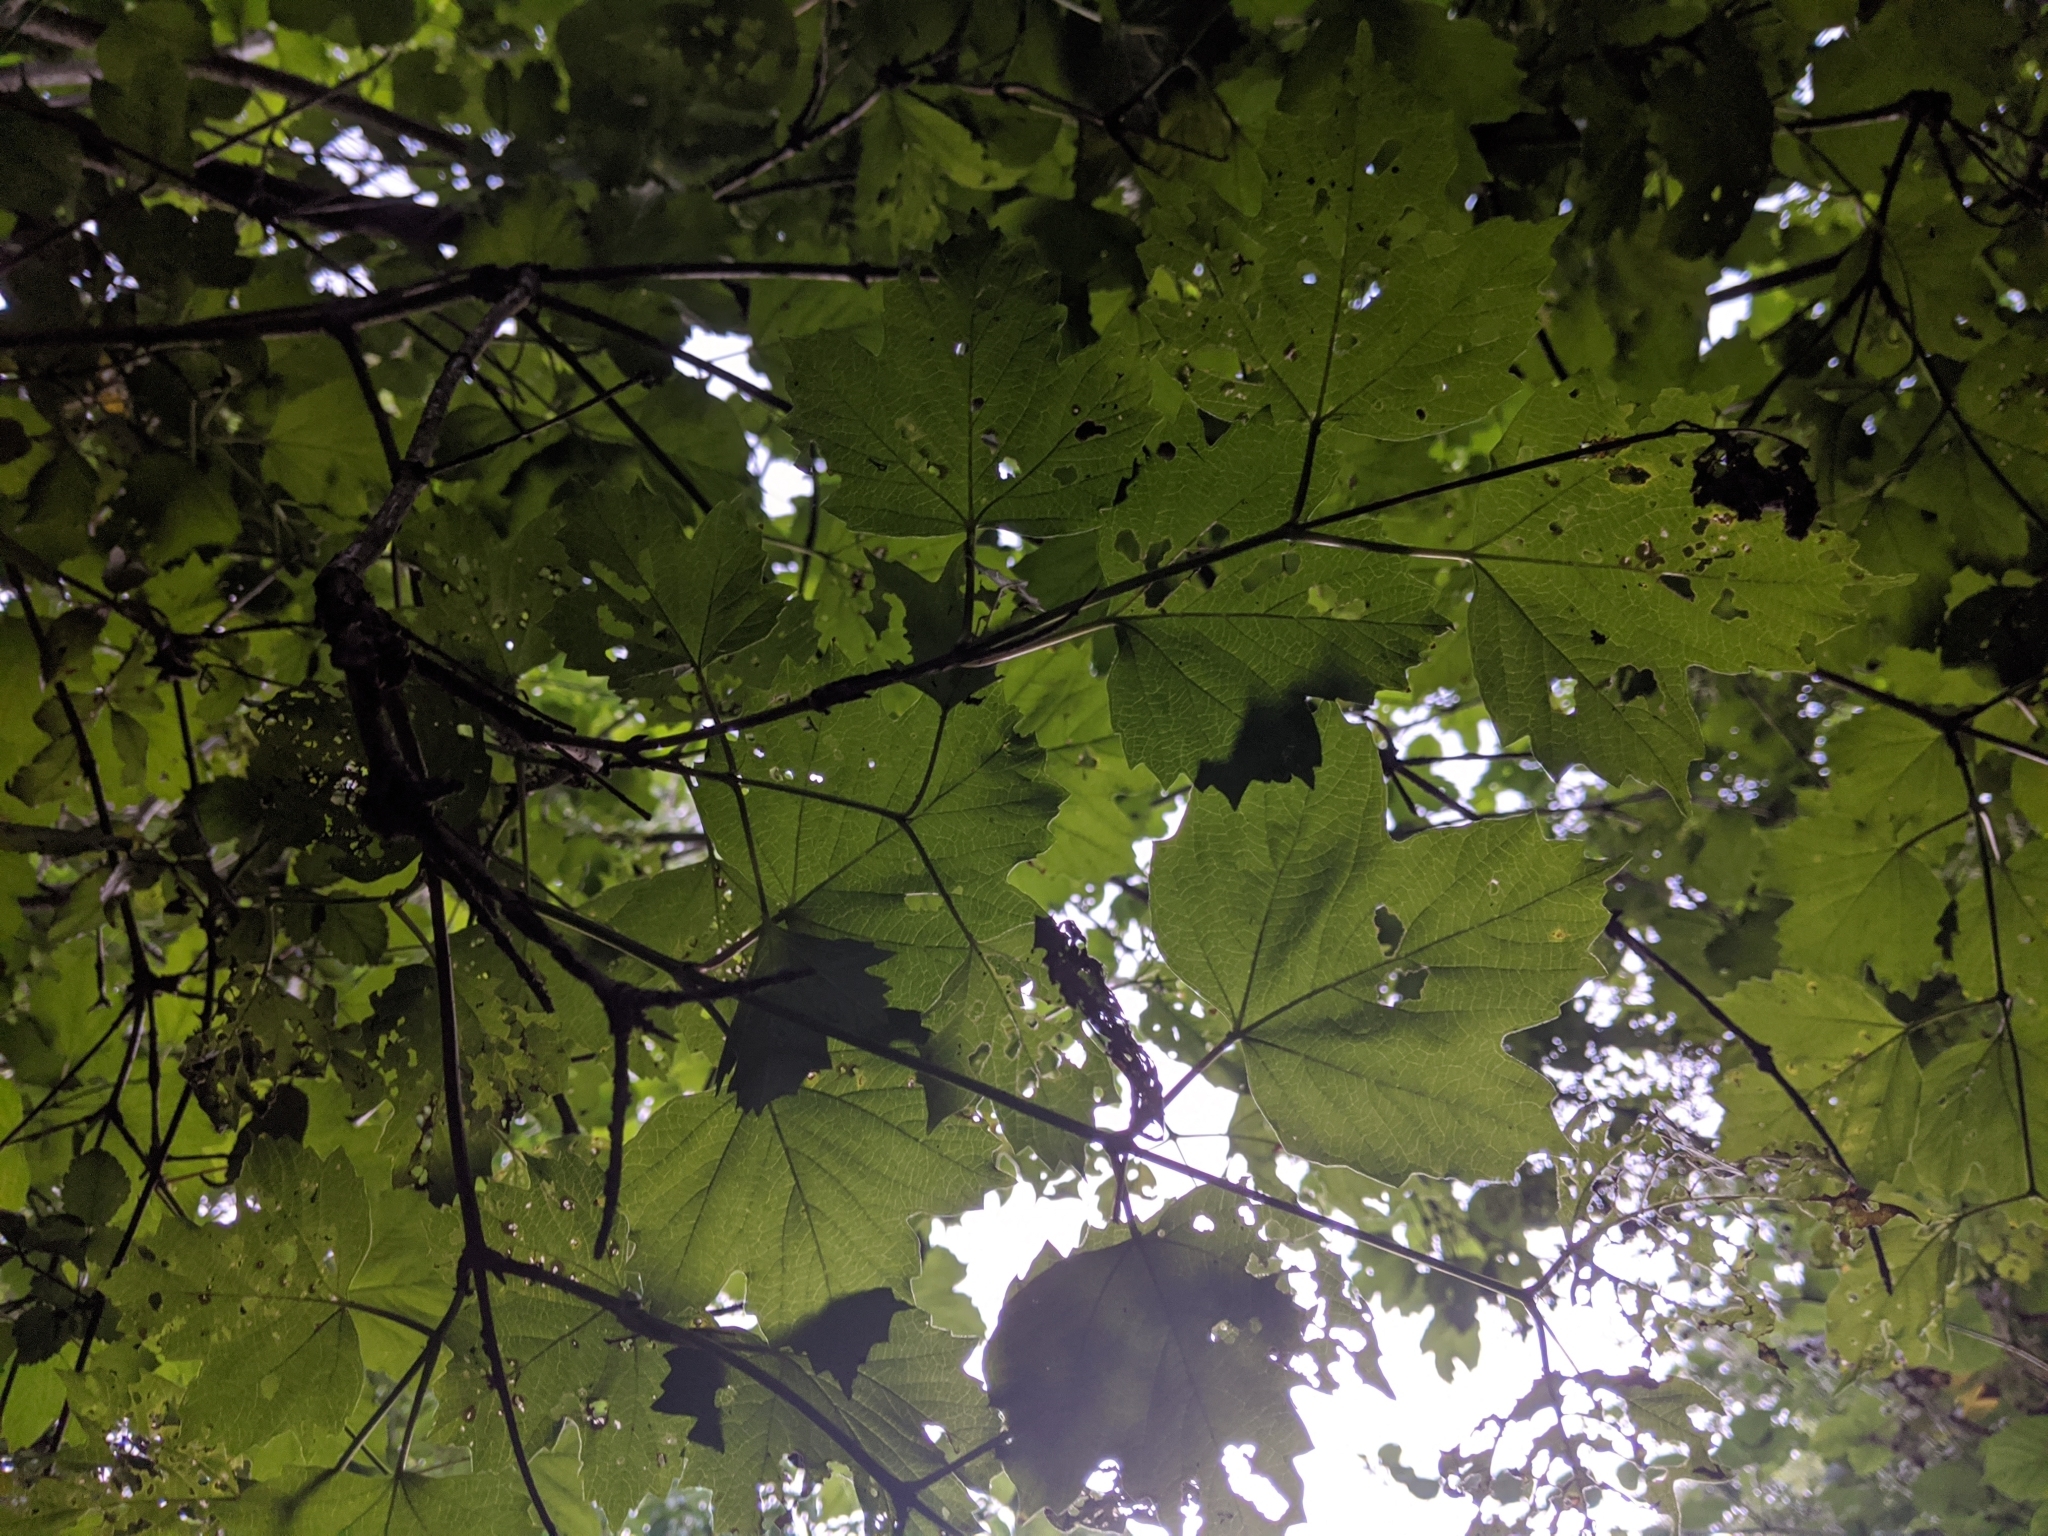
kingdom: Plantae
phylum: Tracheophyta
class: Magnoliopsida
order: Sapindales
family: Sapindaceae
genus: Acer
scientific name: Acer pseudoplatanus
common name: Sycamore
